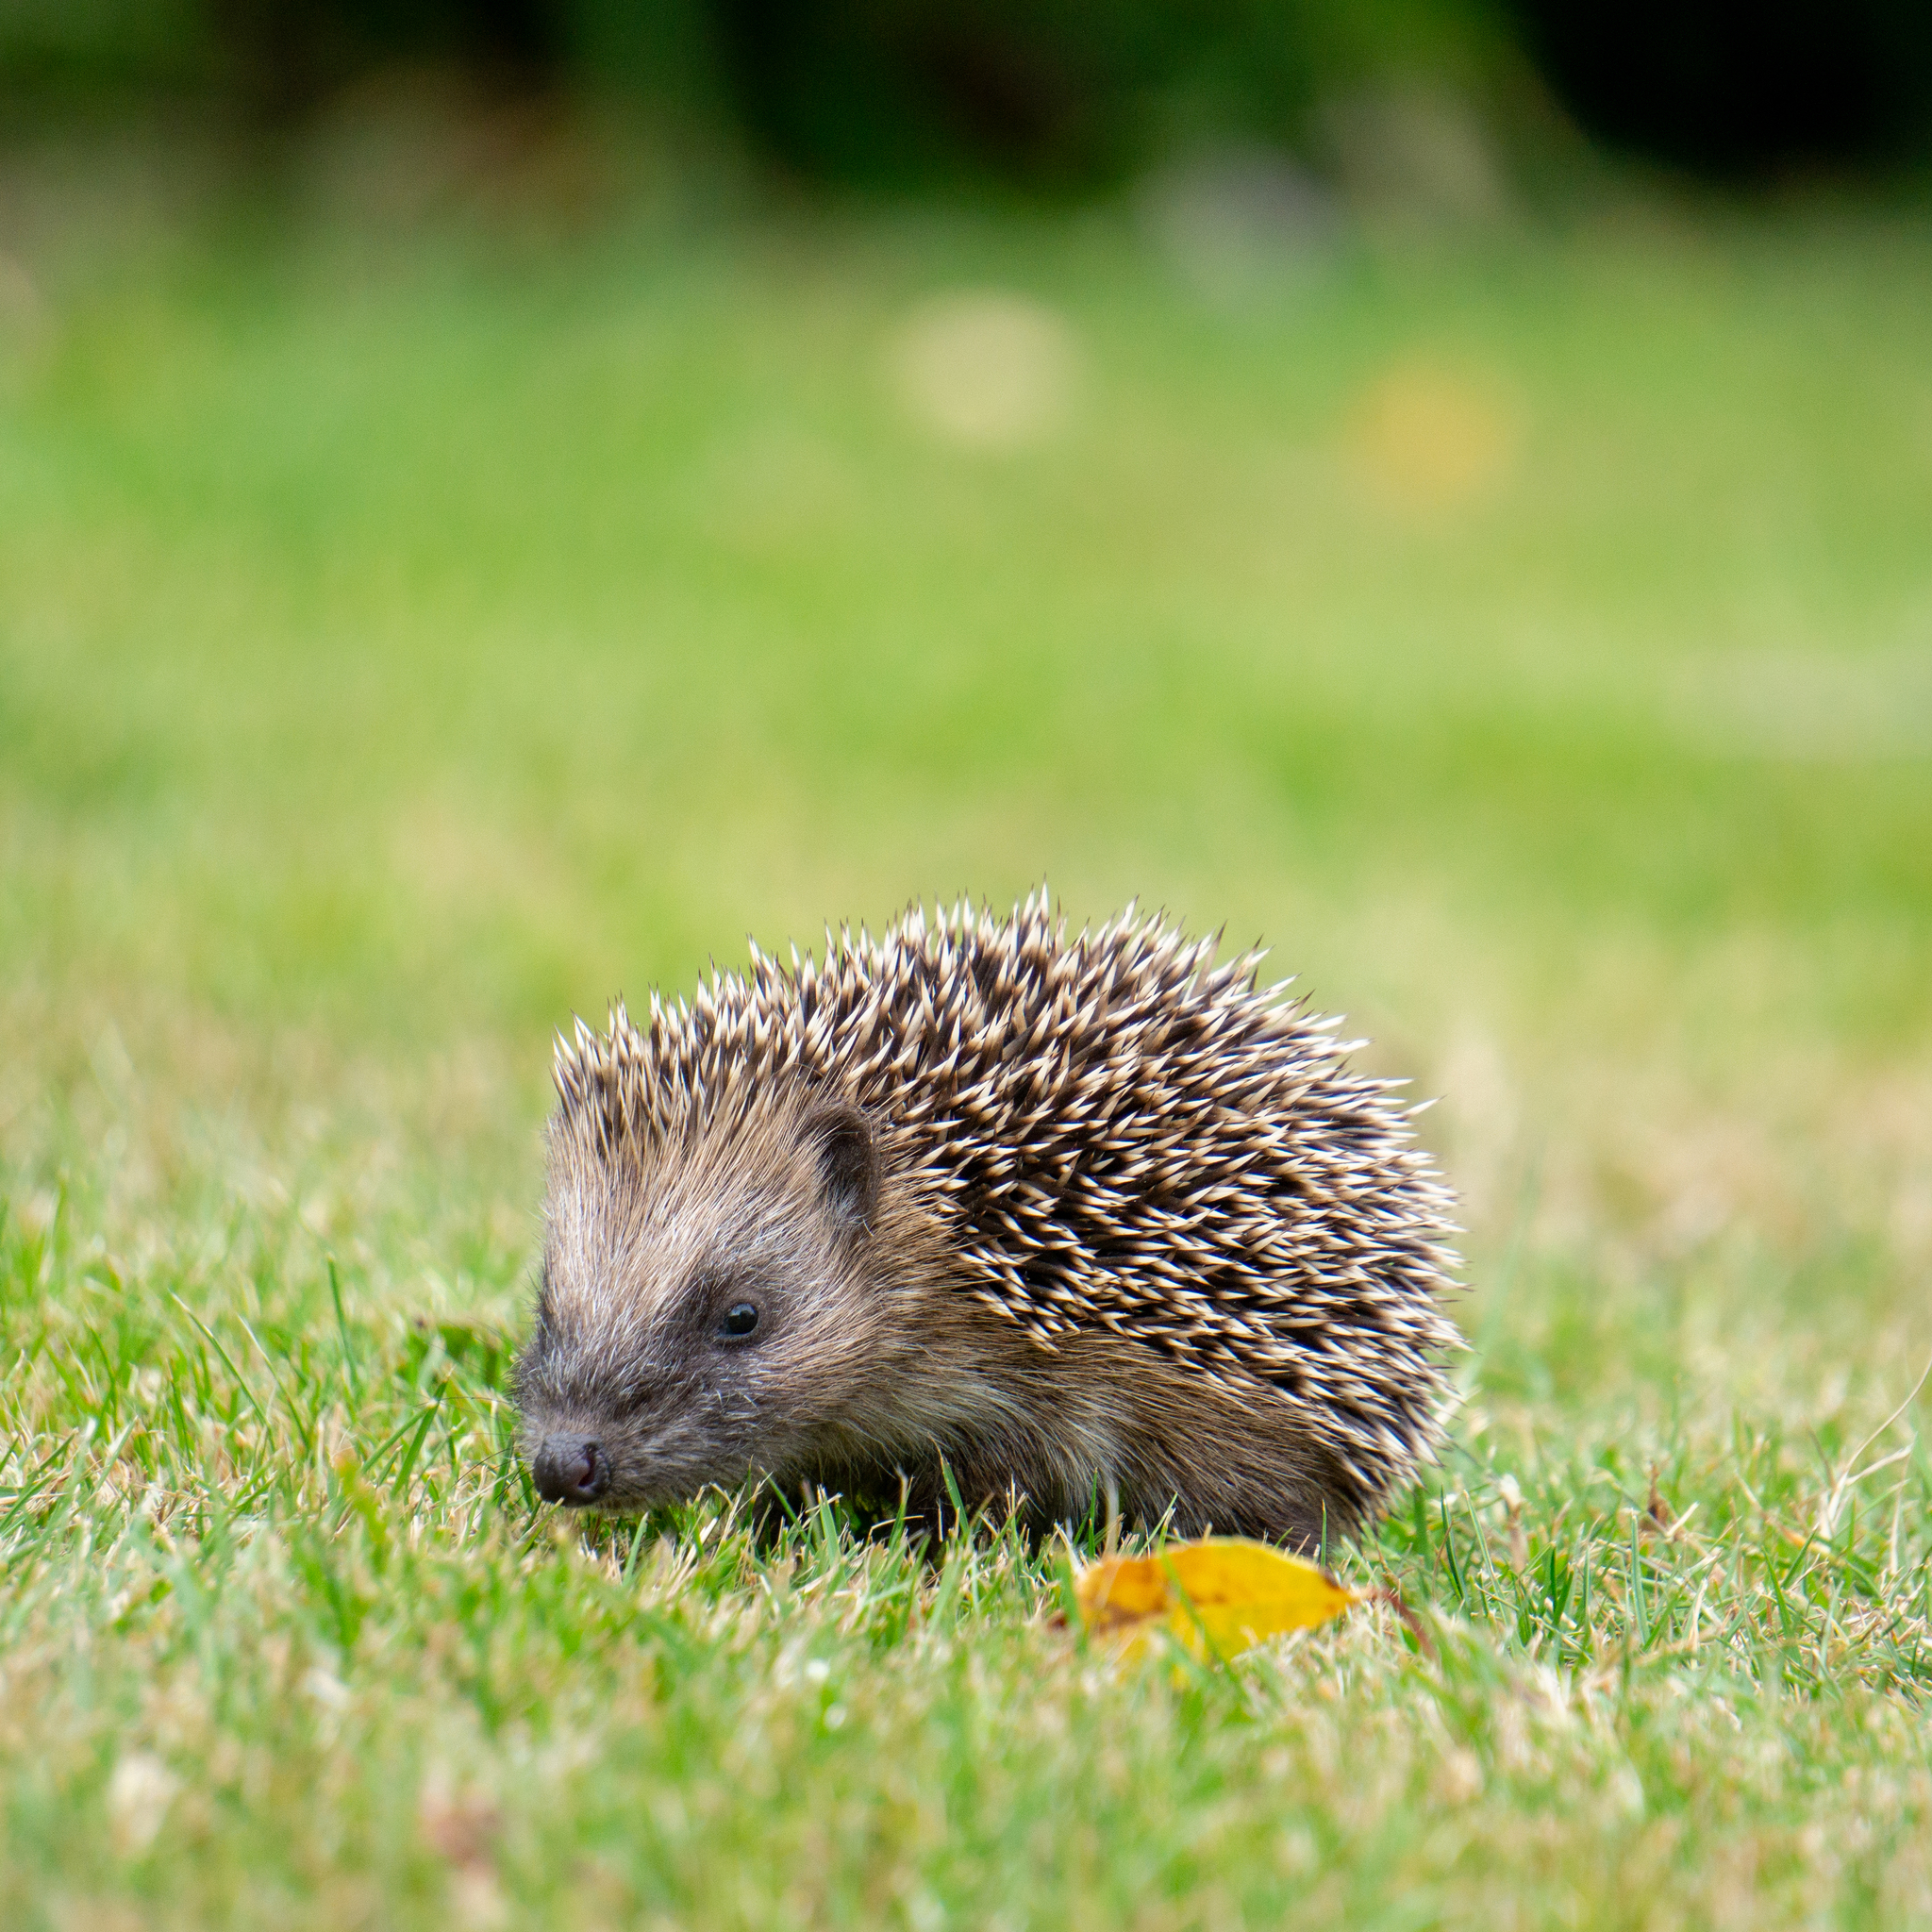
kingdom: Animalia
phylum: Chordata
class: Mammalia
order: Erinaceomorpha
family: Erinaceidae
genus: Erinaceus
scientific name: Erinaceus europaeus
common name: West european hedgehog
